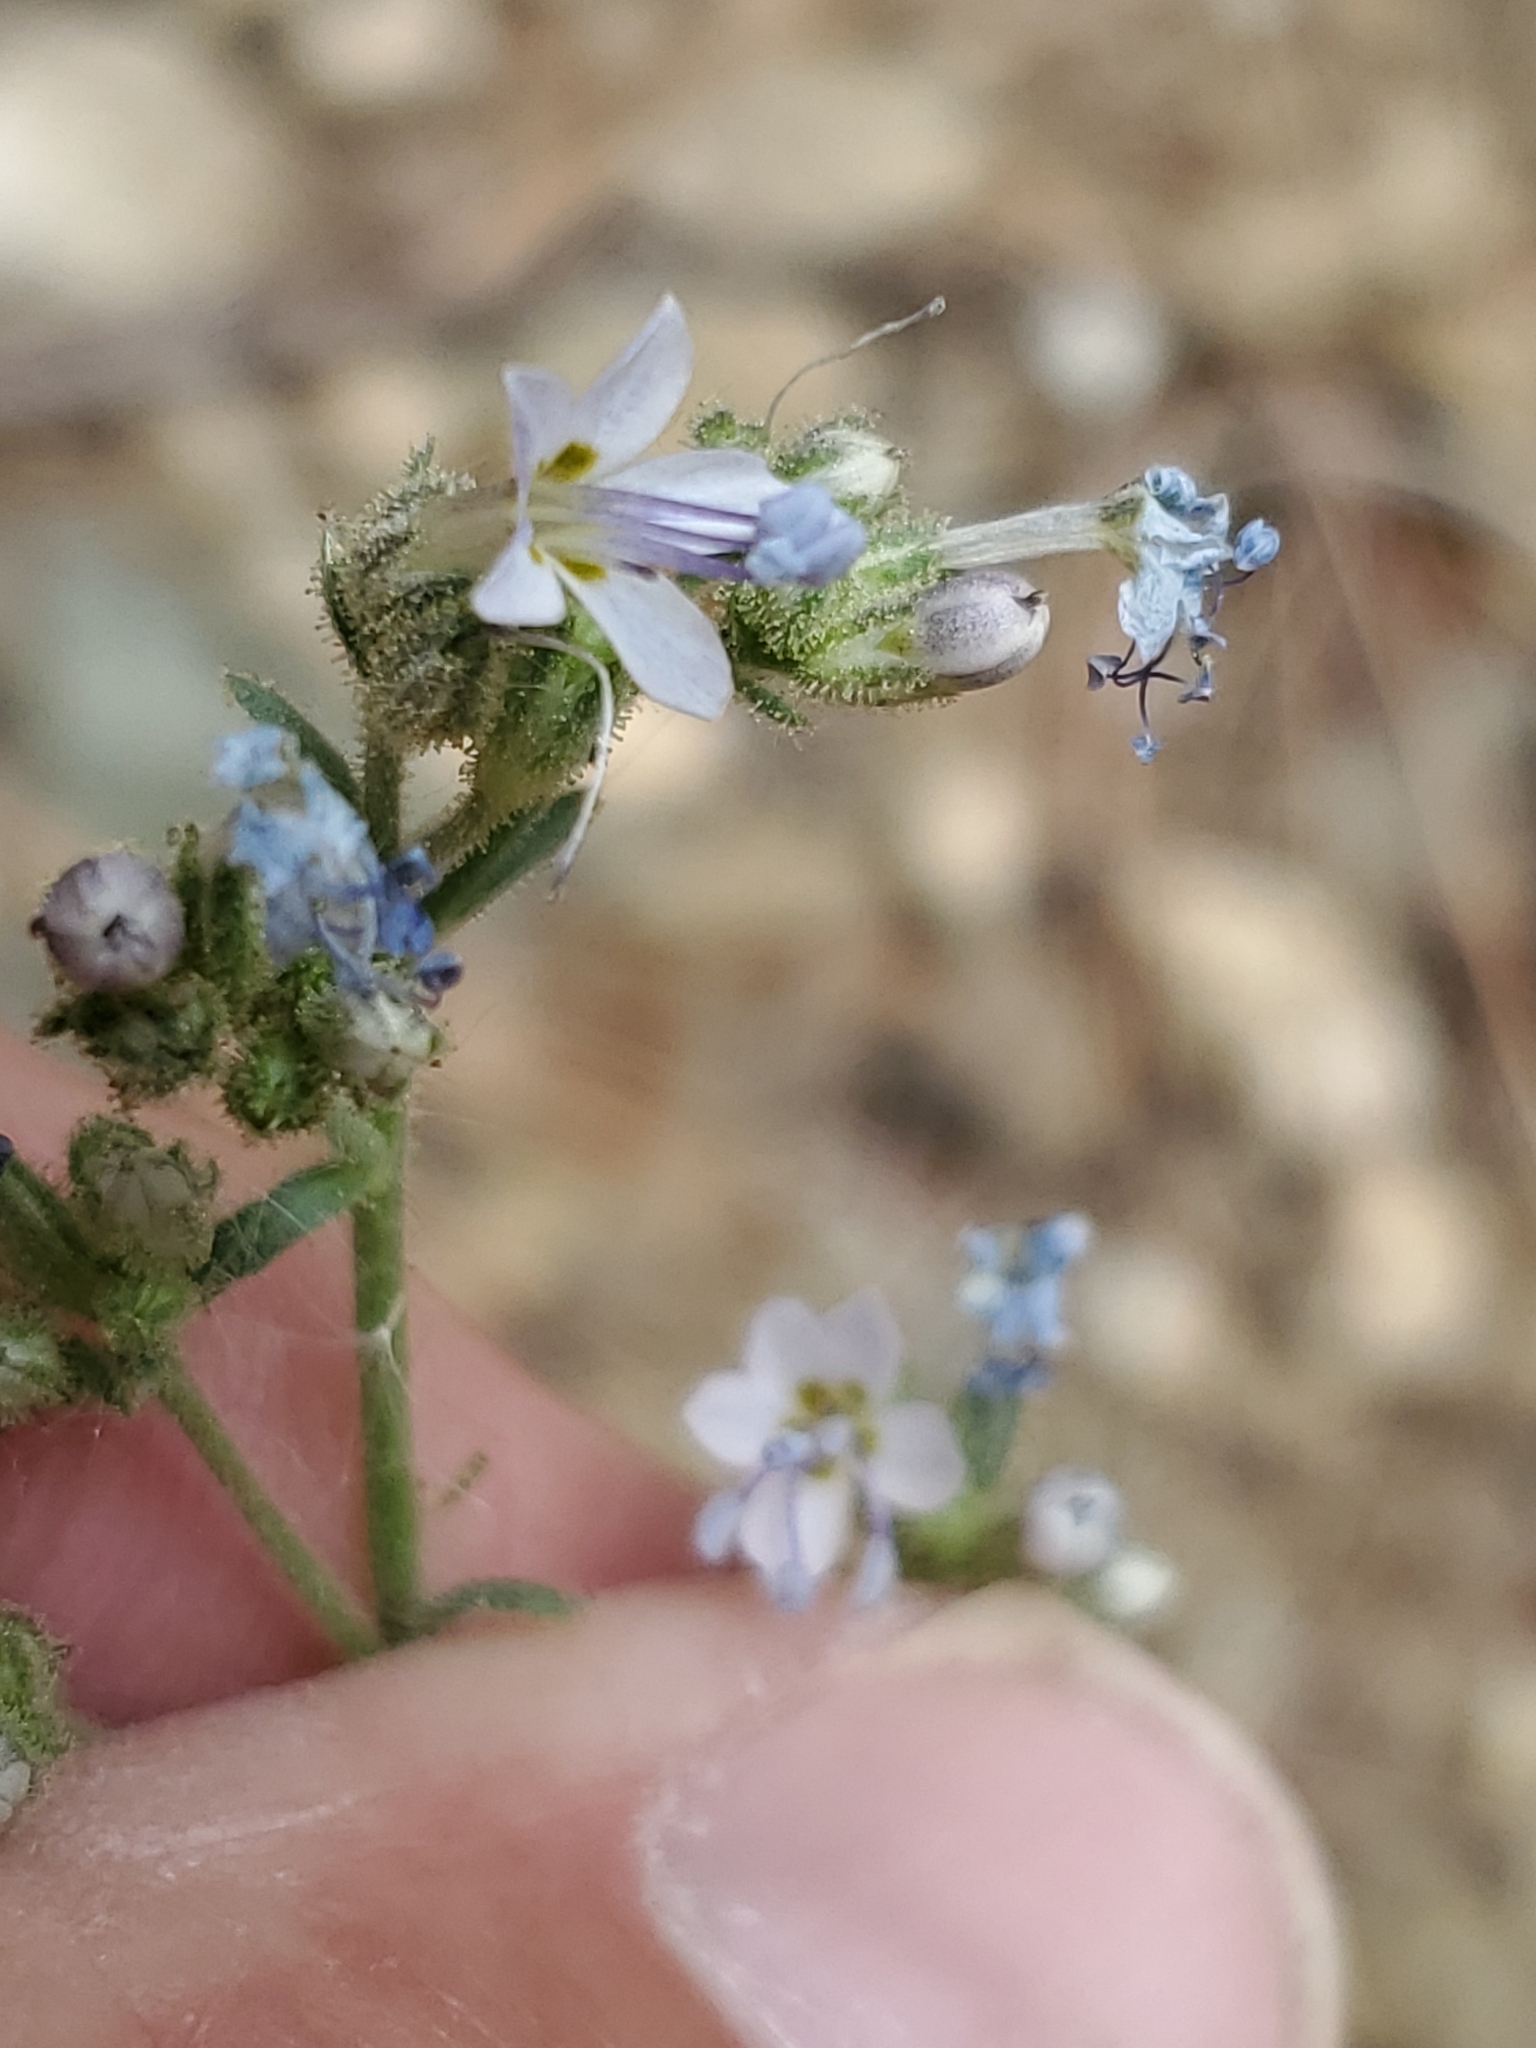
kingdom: Plantae
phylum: Tracheophyta
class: Magnoliopsida
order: Ericales
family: Polemoniaceae
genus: Aliciella
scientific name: Aliciella pinnatifida
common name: Sticky gilia
